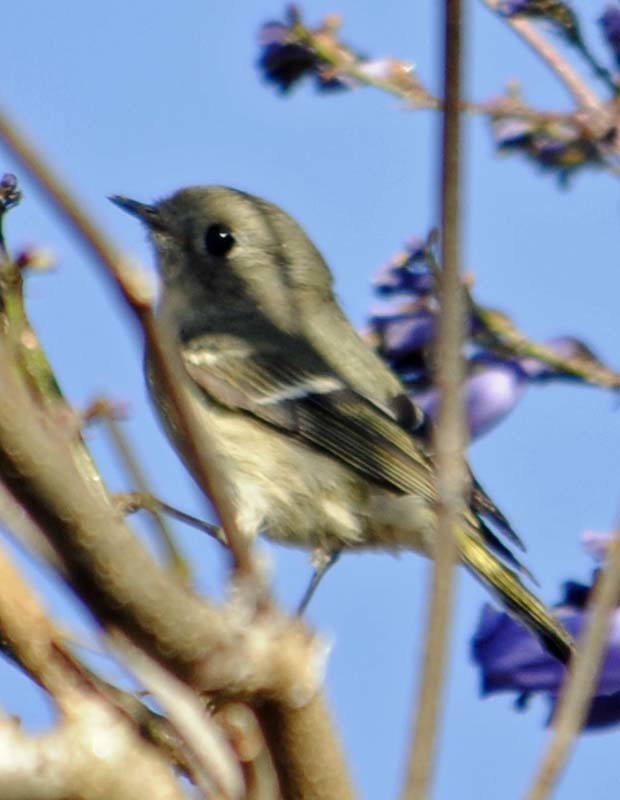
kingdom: Animalia
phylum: Chordata
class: Aves
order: Passeriformes
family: Regulidae
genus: Regulus
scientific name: Regulus calendula
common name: Ruby-crowned kinglet
